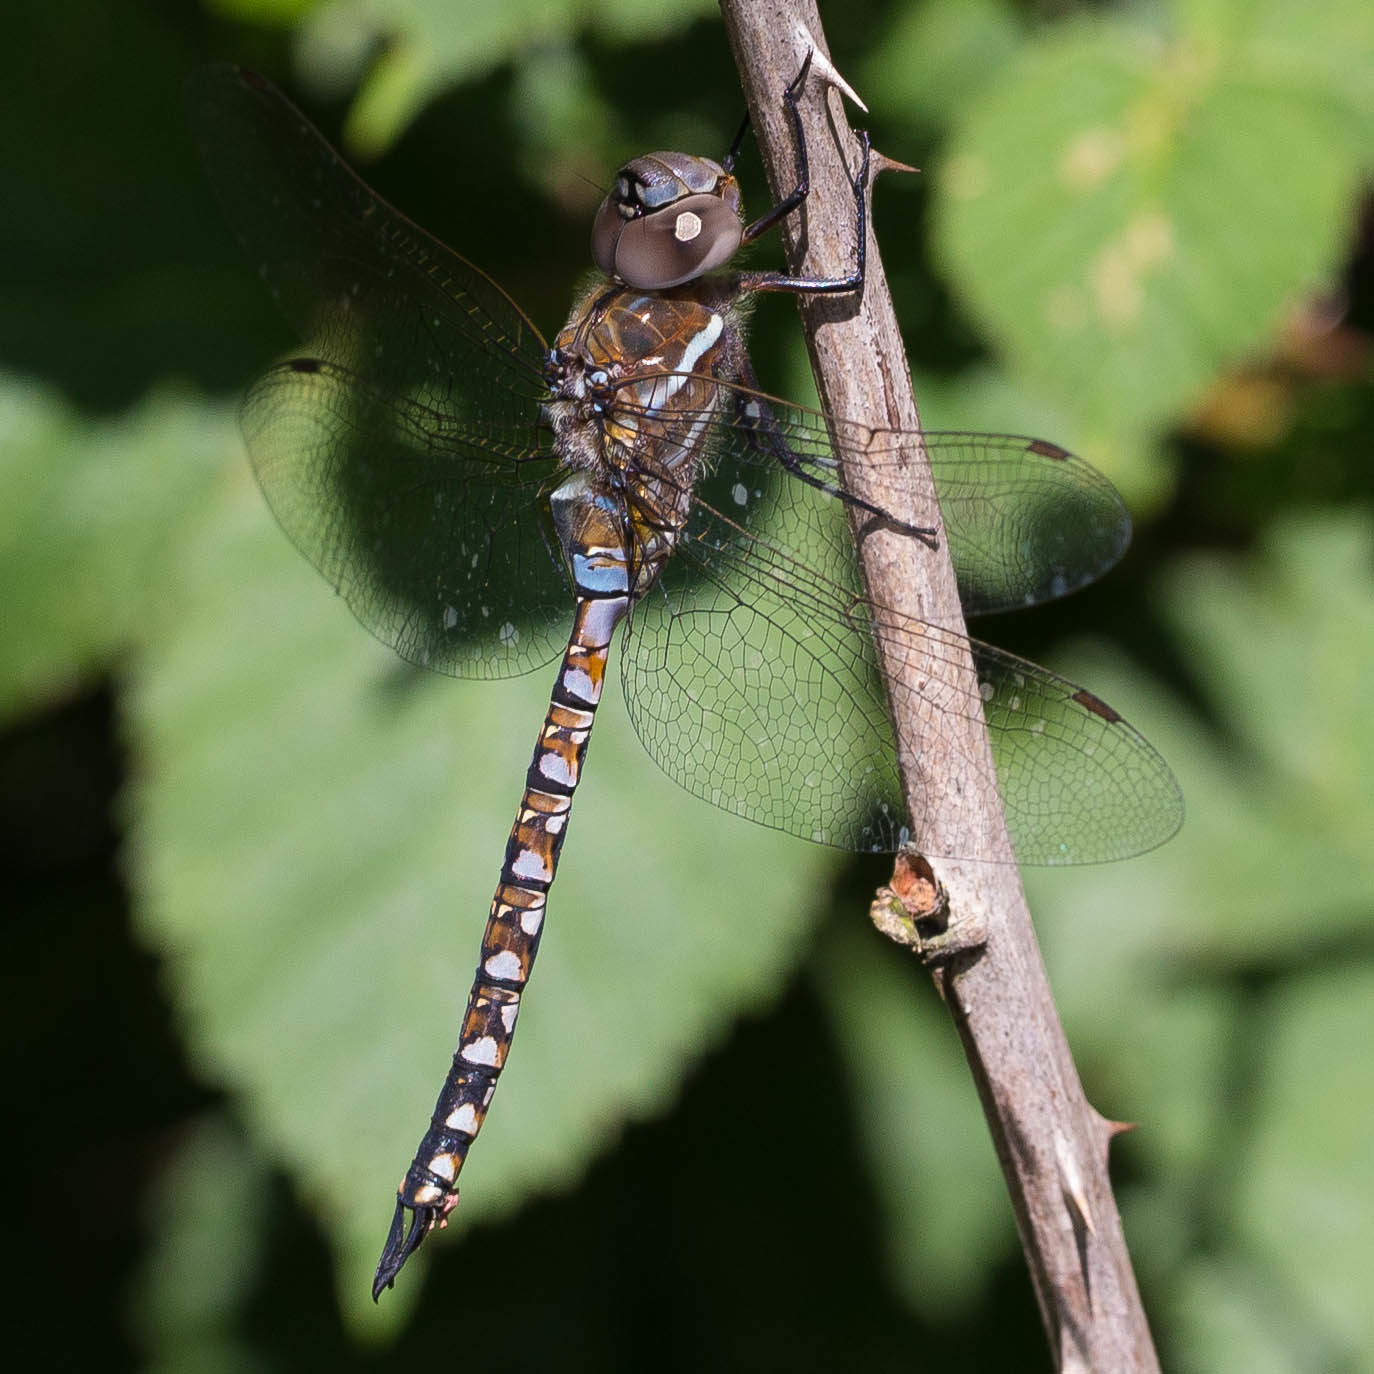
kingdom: Animalia
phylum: Arthropoda
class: Insecta
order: Odonata
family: Aeshnidae
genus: Rhionaeschna
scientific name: Rhionaeschna multicolor
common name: Blue-eyed darner
